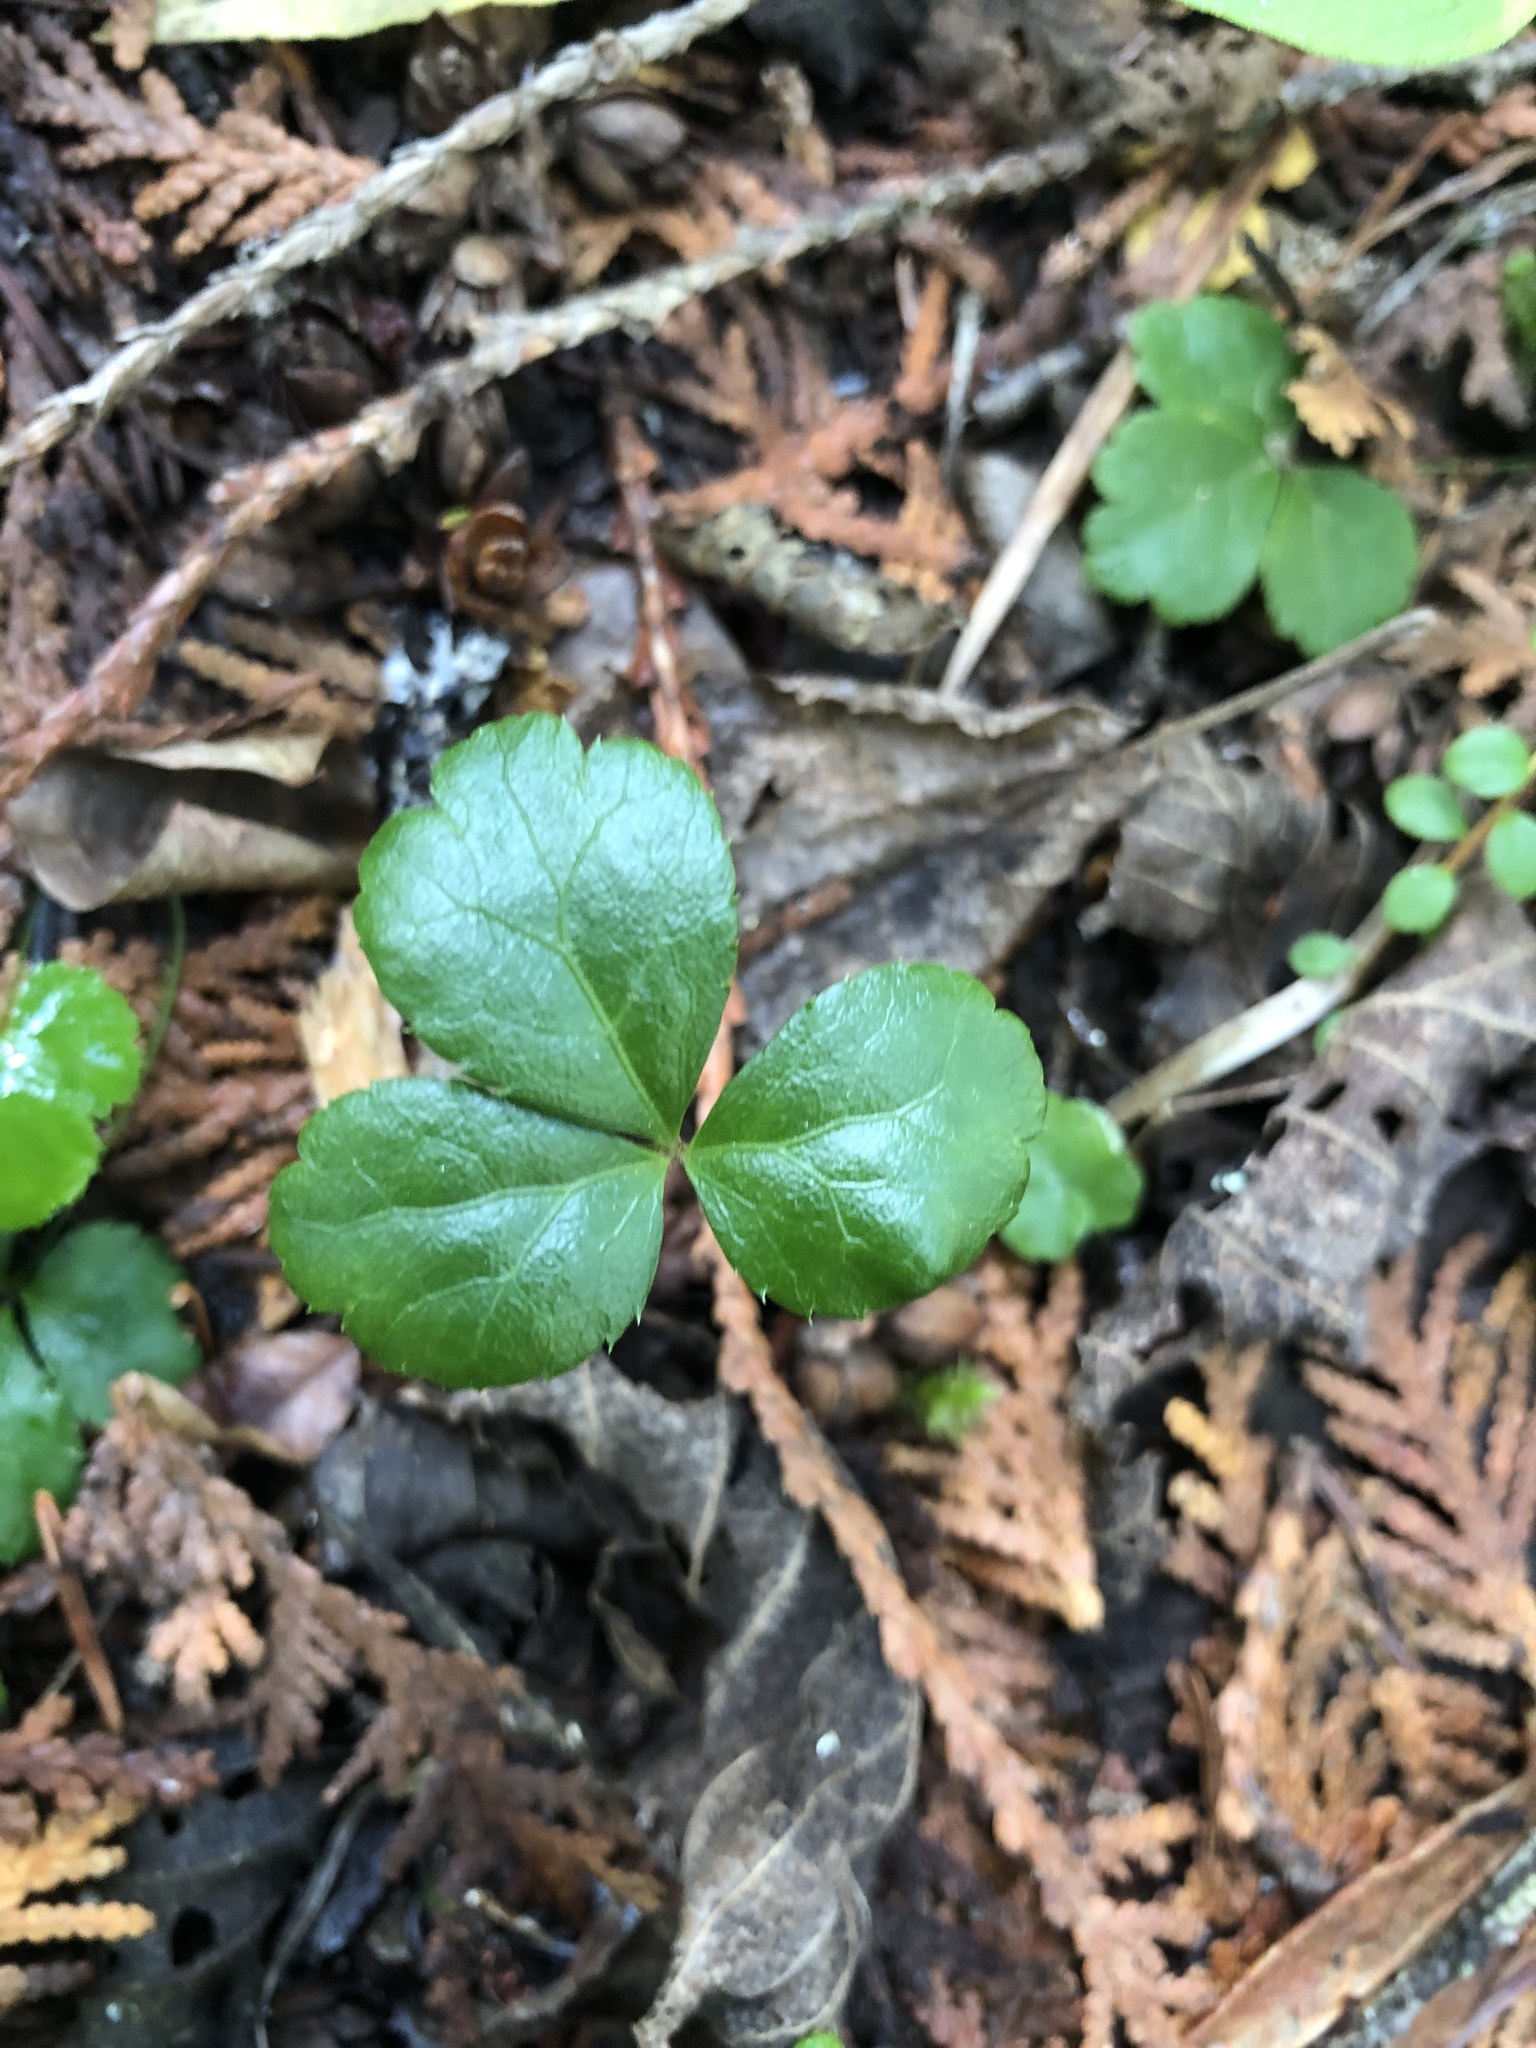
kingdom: Plantae
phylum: Tracheophyta
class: Magnoliopsida
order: Ranunculales
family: Ranunculaceae
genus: Coptis
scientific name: Coptis trifolia
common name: Canker-root
